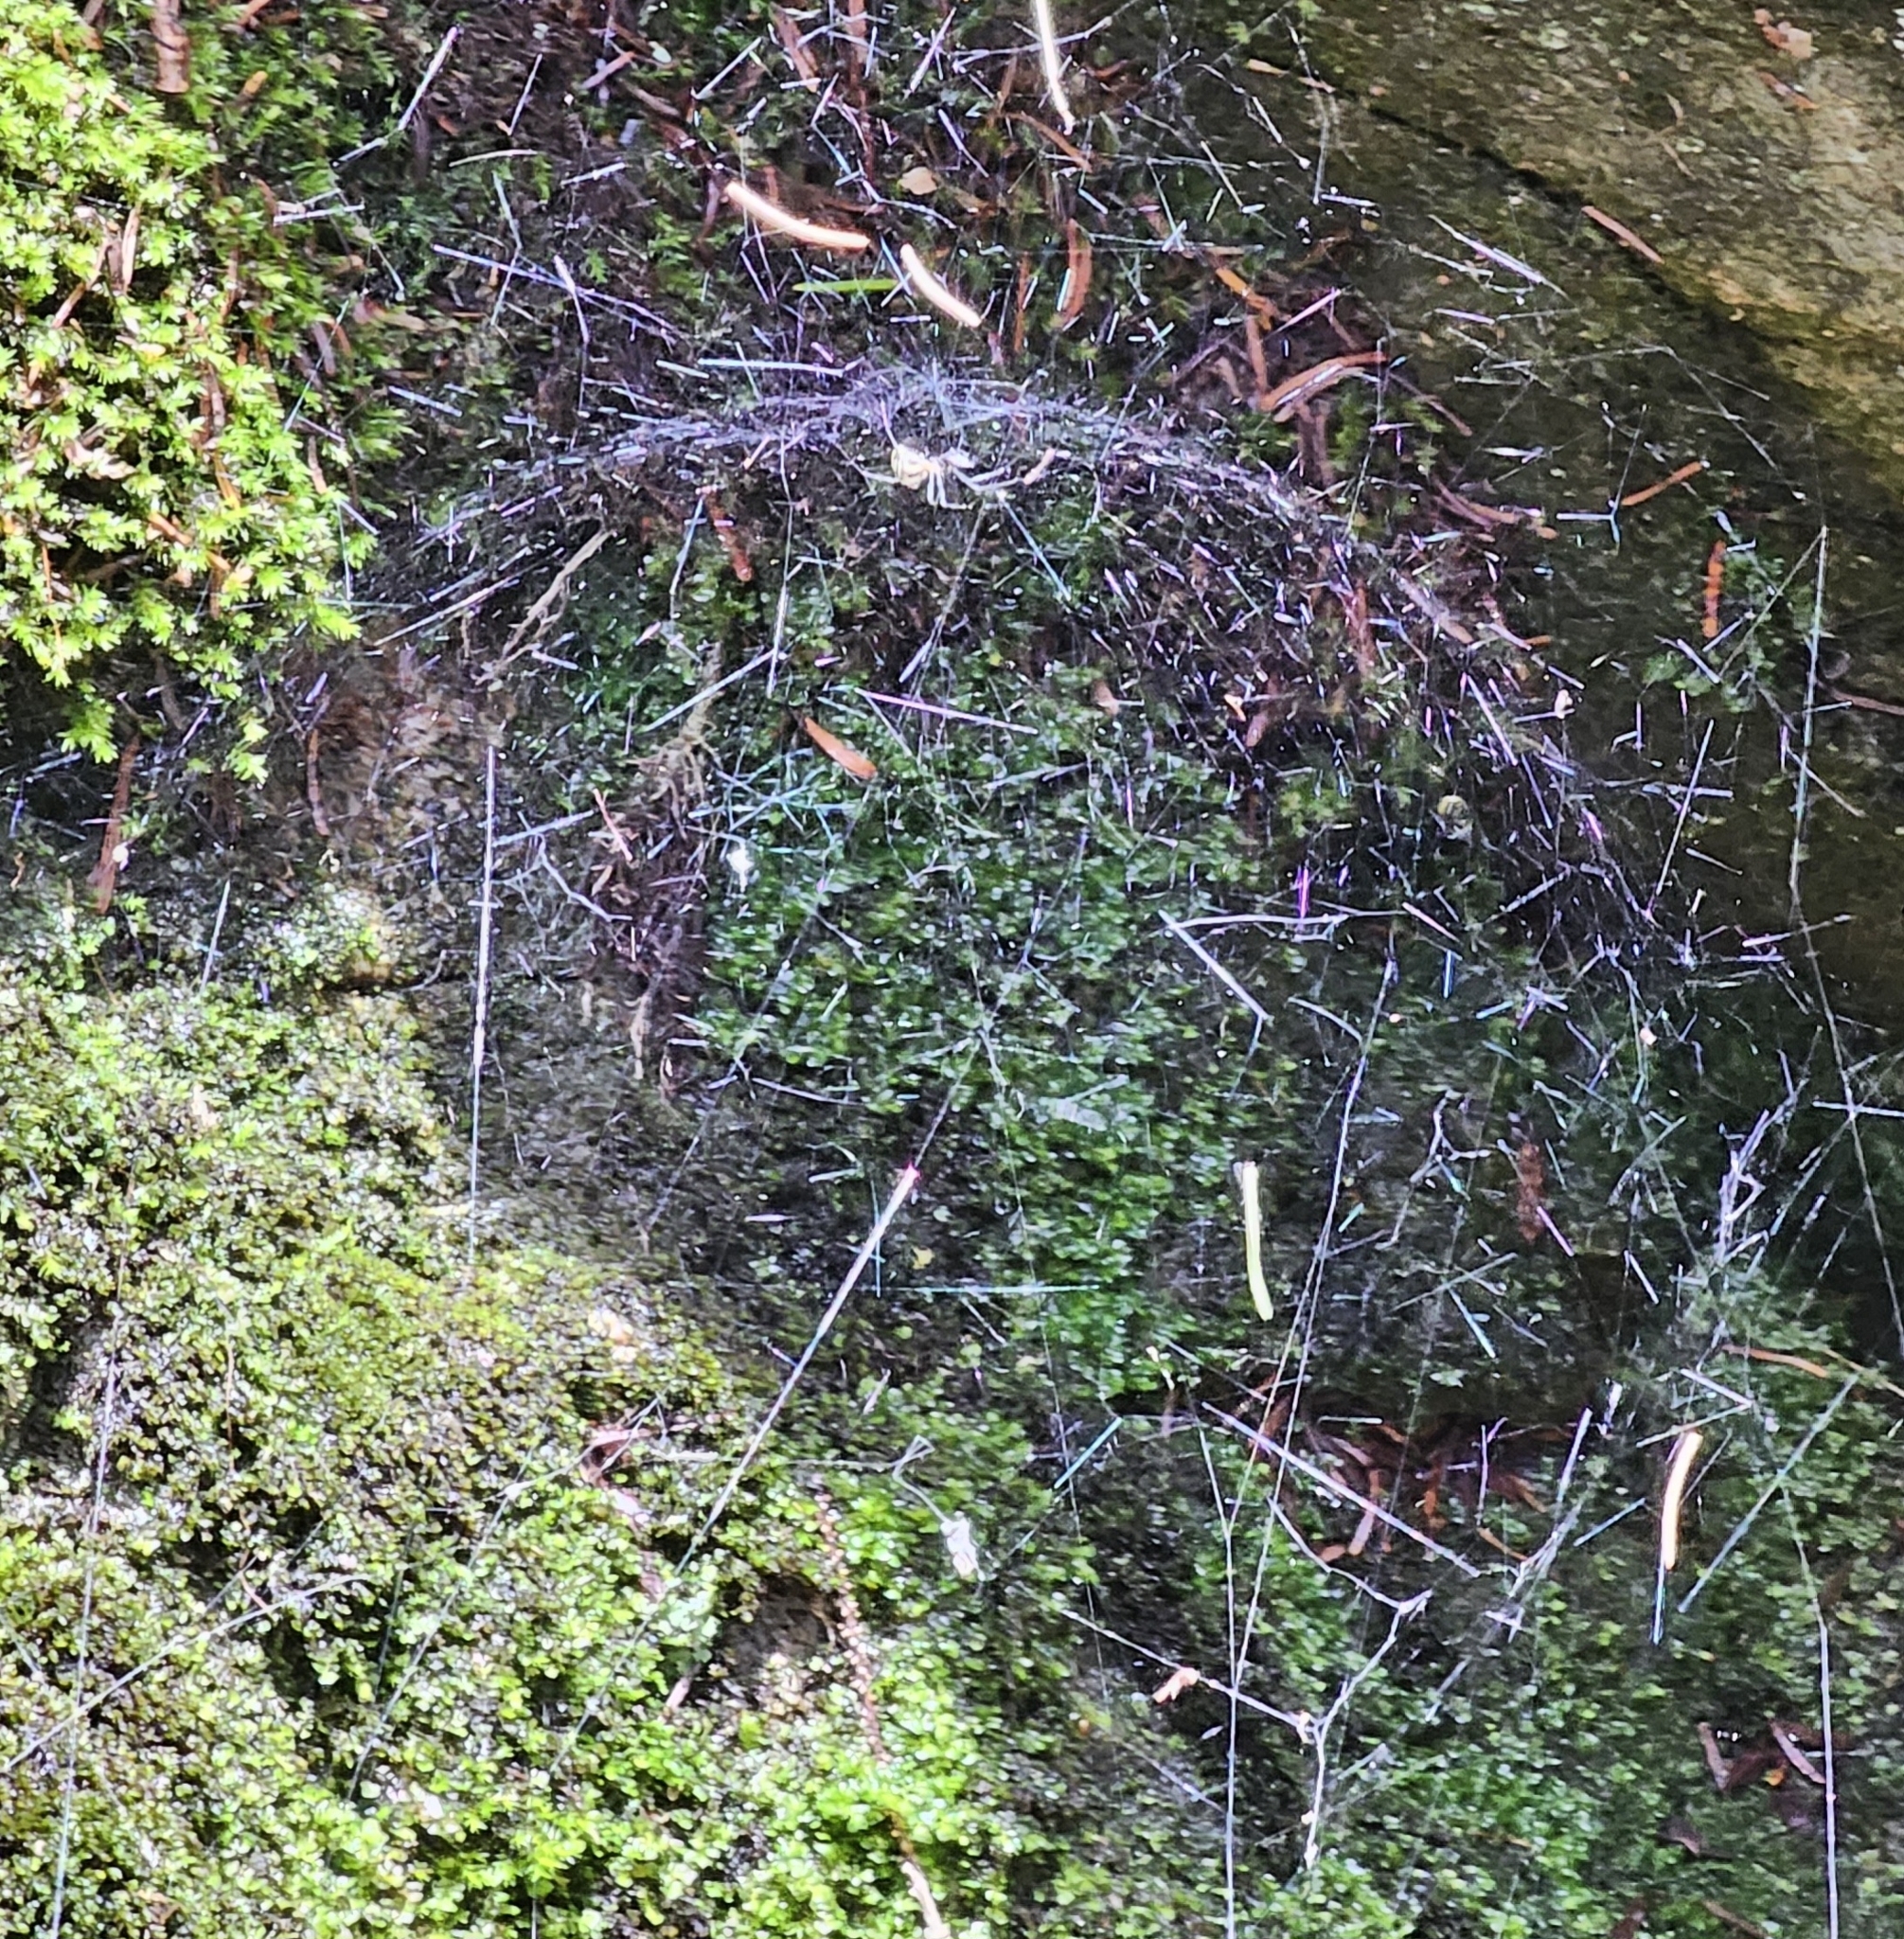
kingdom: Animalia
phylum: Arthropoda
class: Arachnida
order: Araneae
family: Linyphiidae
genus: Neriene
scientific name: Neriene radiata
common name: Filmy dome spider
